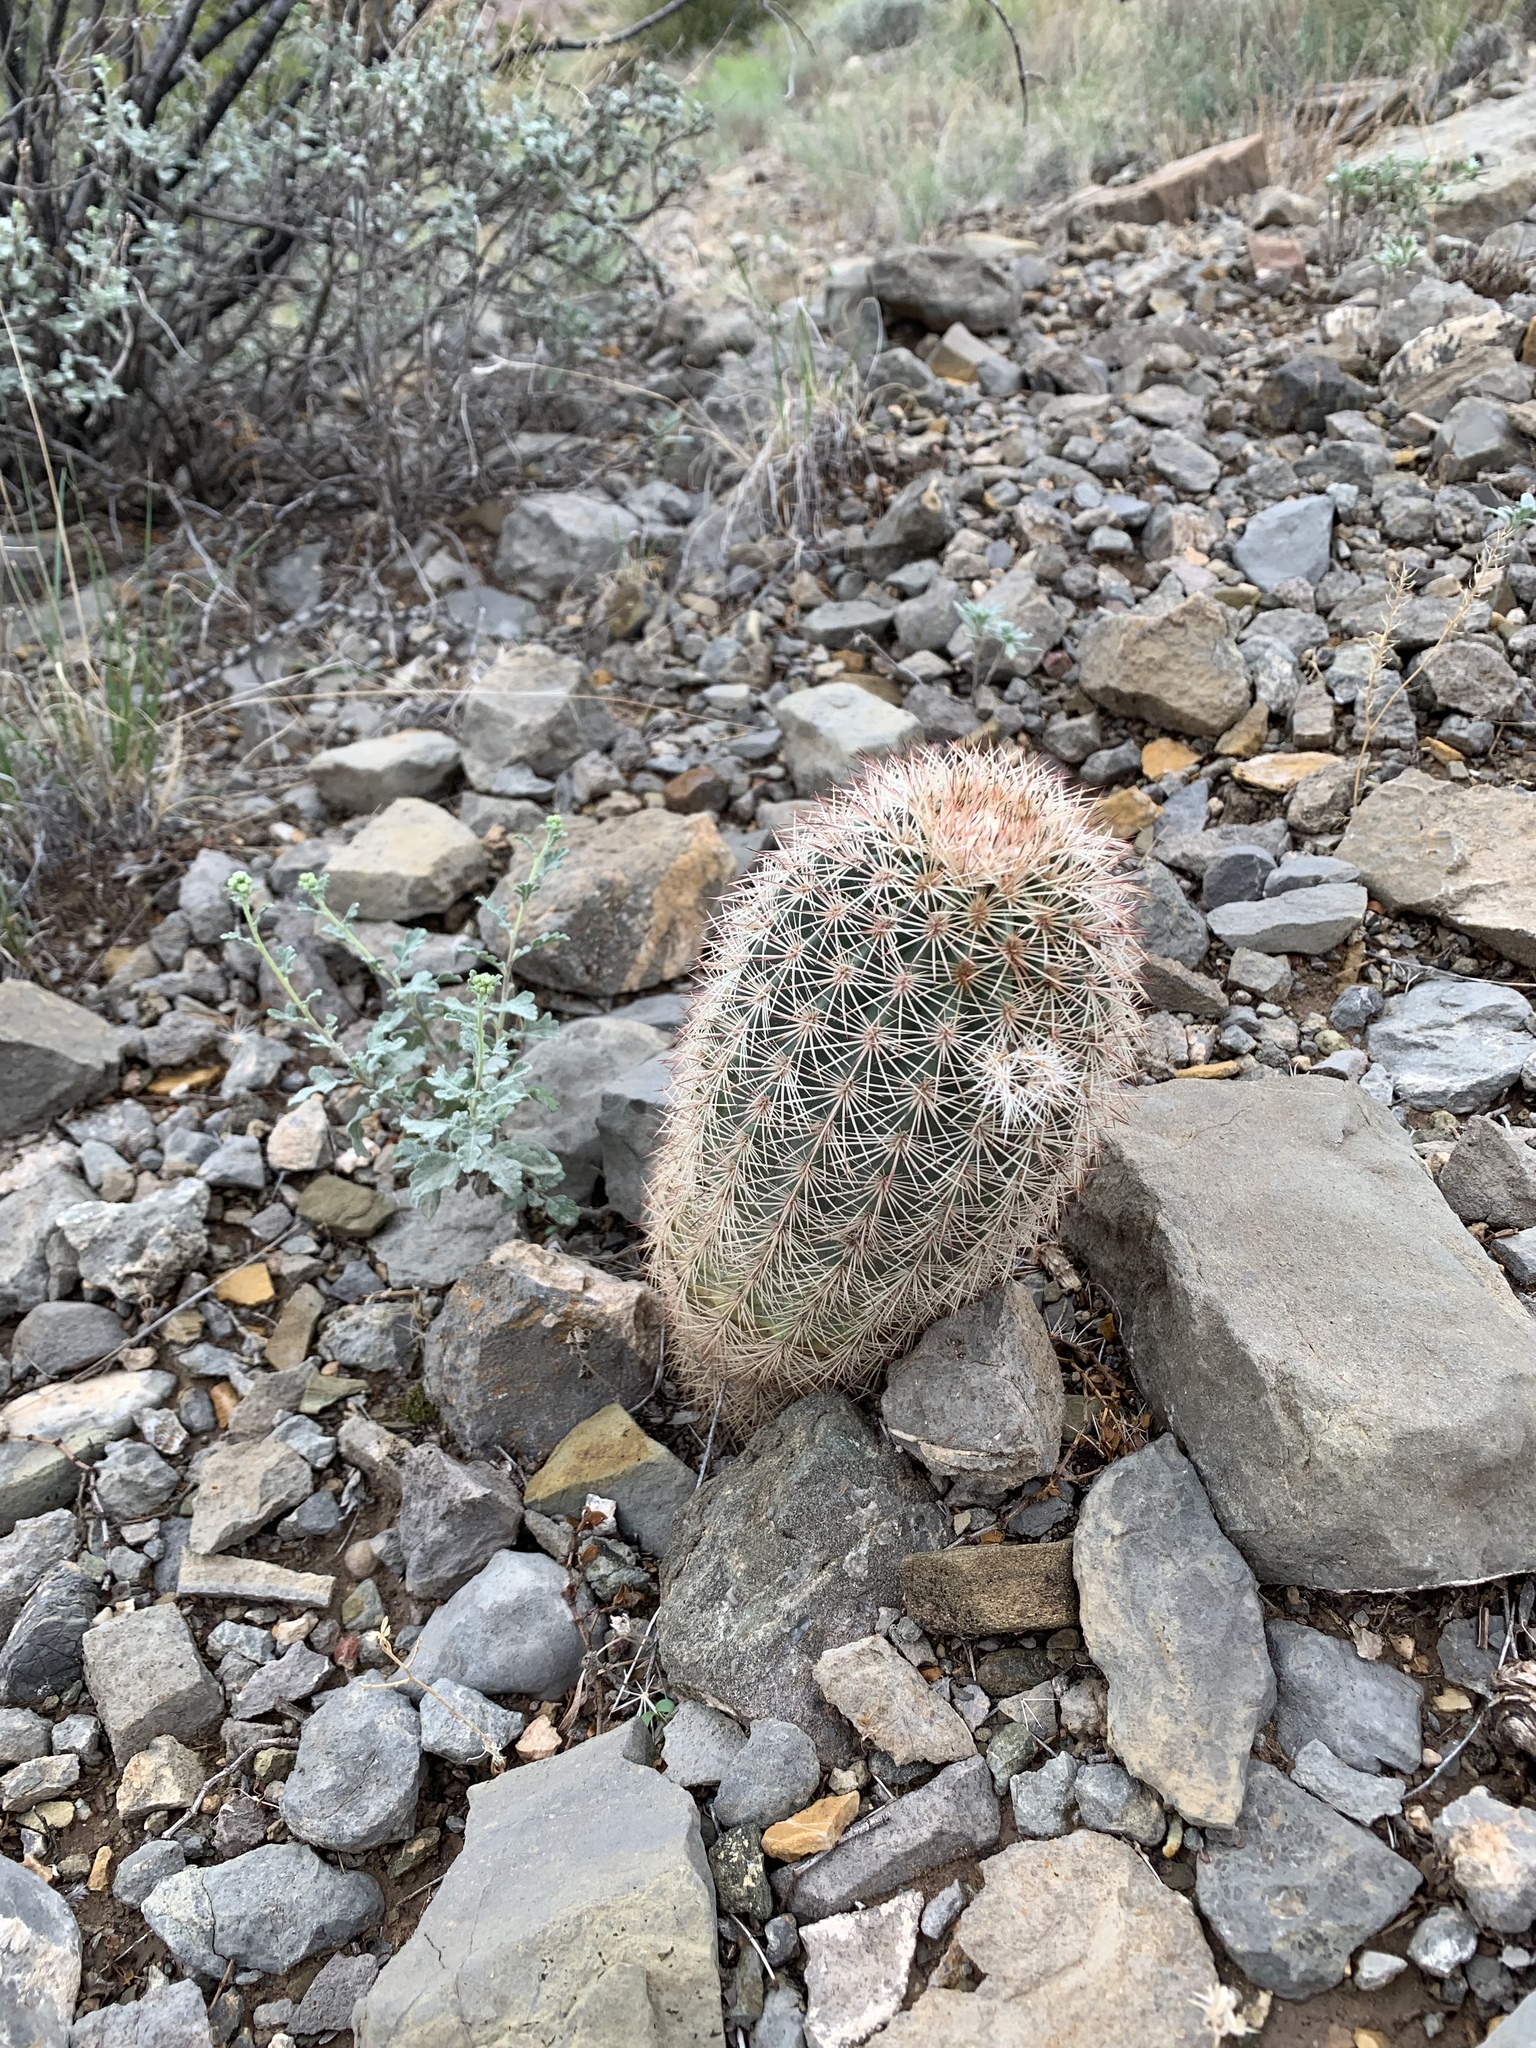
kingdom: Plantae
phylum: Tracheophyta
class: Magnoliopsida
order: Caryophyllales
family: Cactaceae
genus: Echinocereus
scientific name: Echinocereus dasyacanthus
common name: Spiny hedgehog cactus
